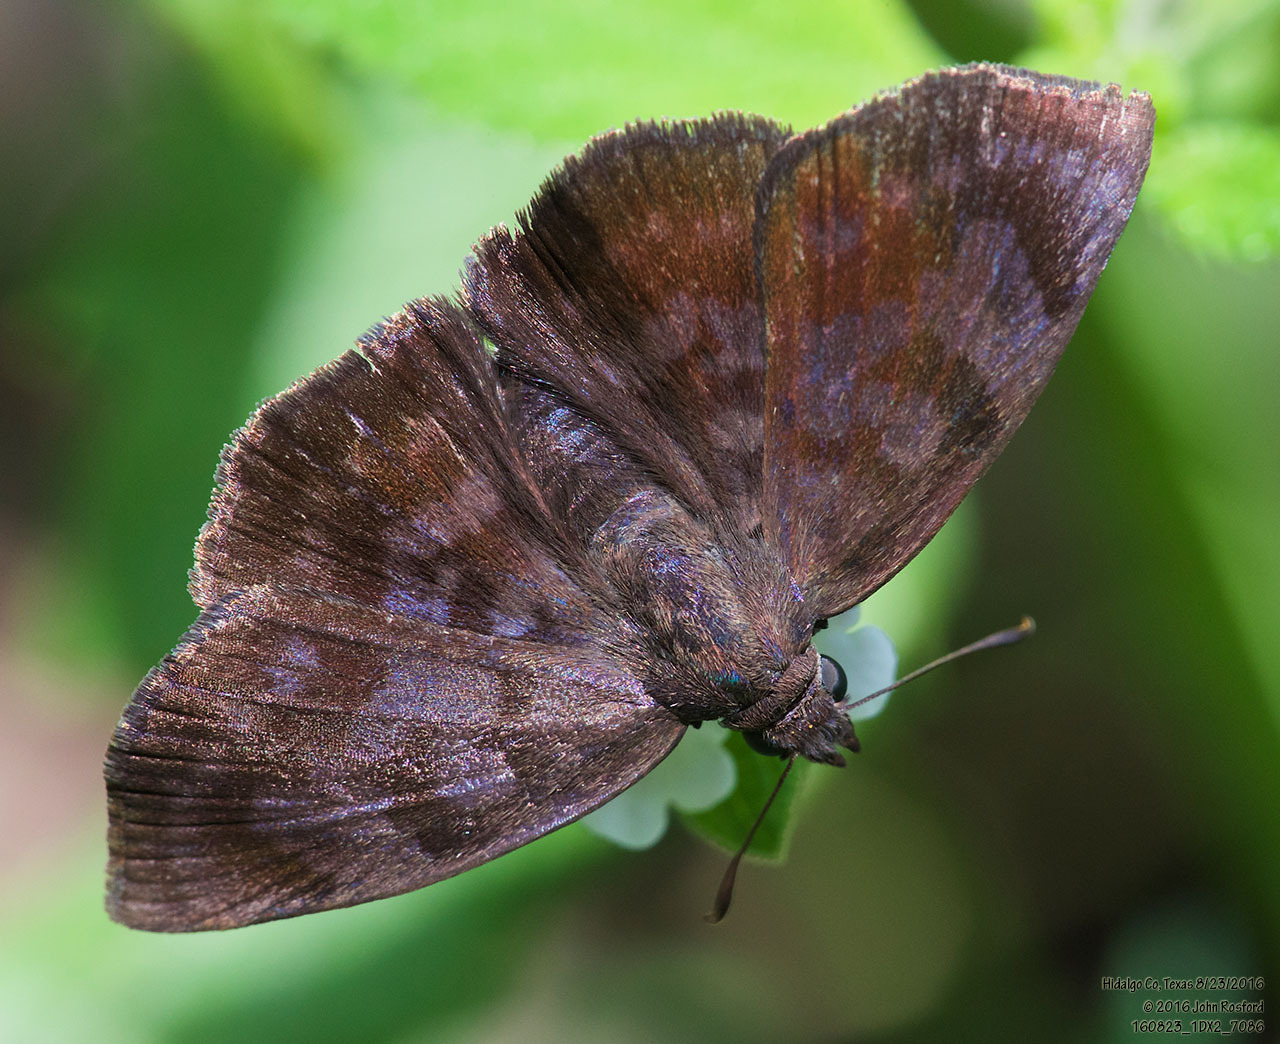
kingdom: Animalia
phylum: Arthropoda
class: Insecta
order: Lepidoptera
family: Hesperiidae
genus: Pellicia
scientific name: Pellicia costimacula
